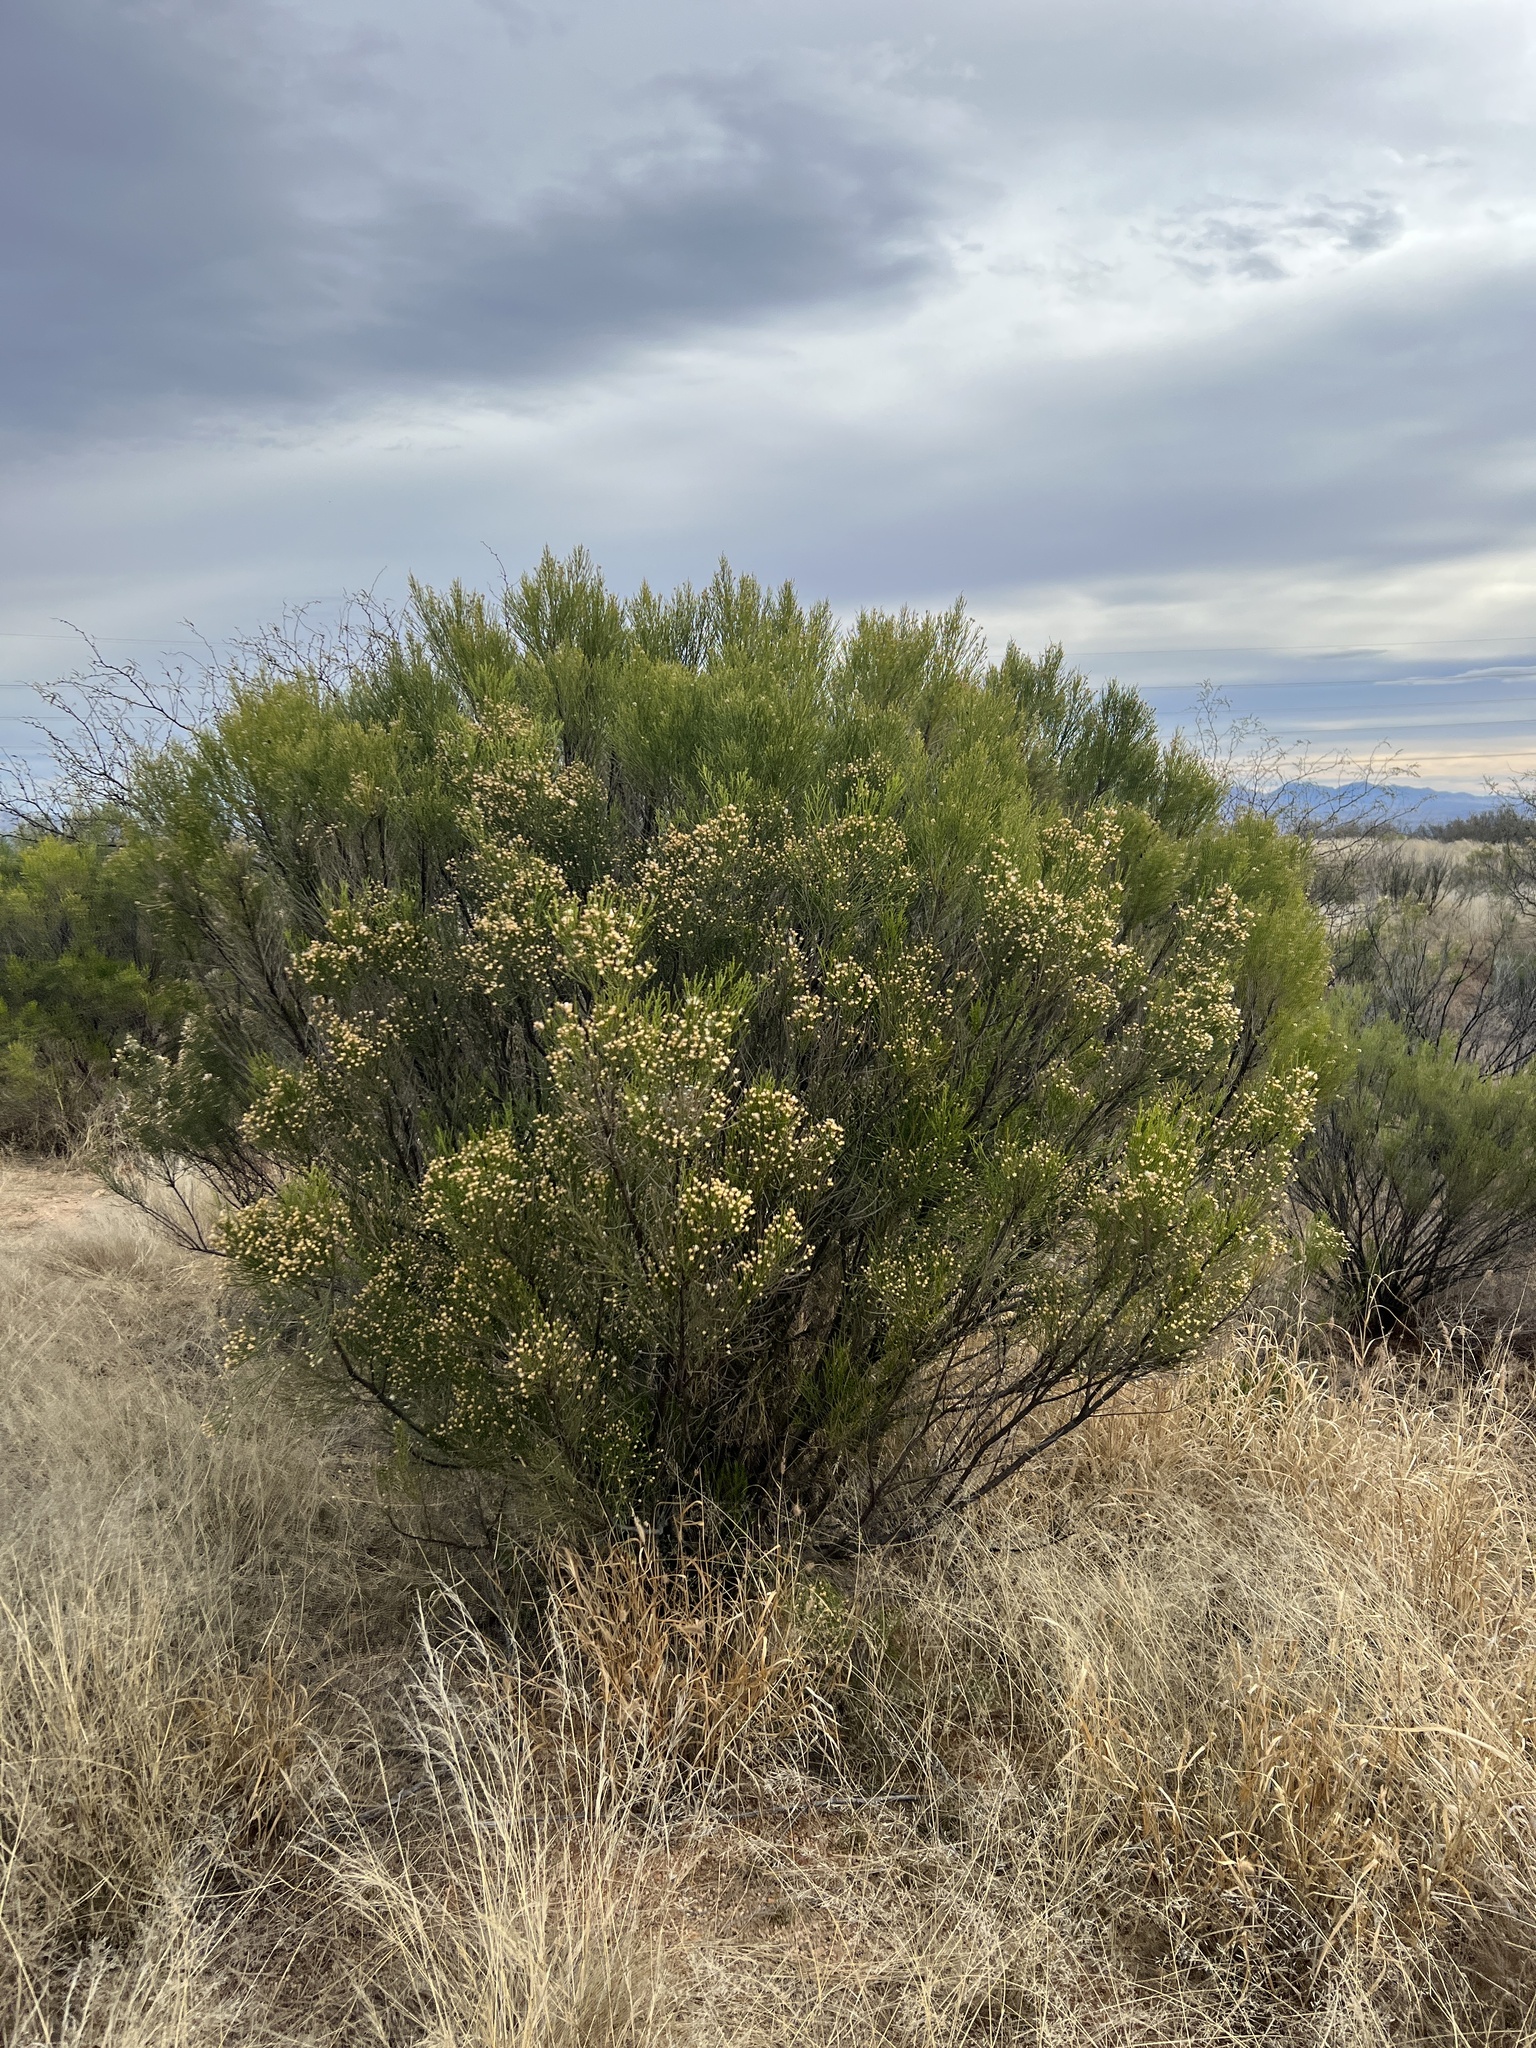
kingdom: Plantae
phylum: Tracheophyta
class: Magnoliopsida
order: Asterales
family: Asteraceae
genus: Baccharis
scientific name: Baccharis sarothroides
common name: Desert-broom
